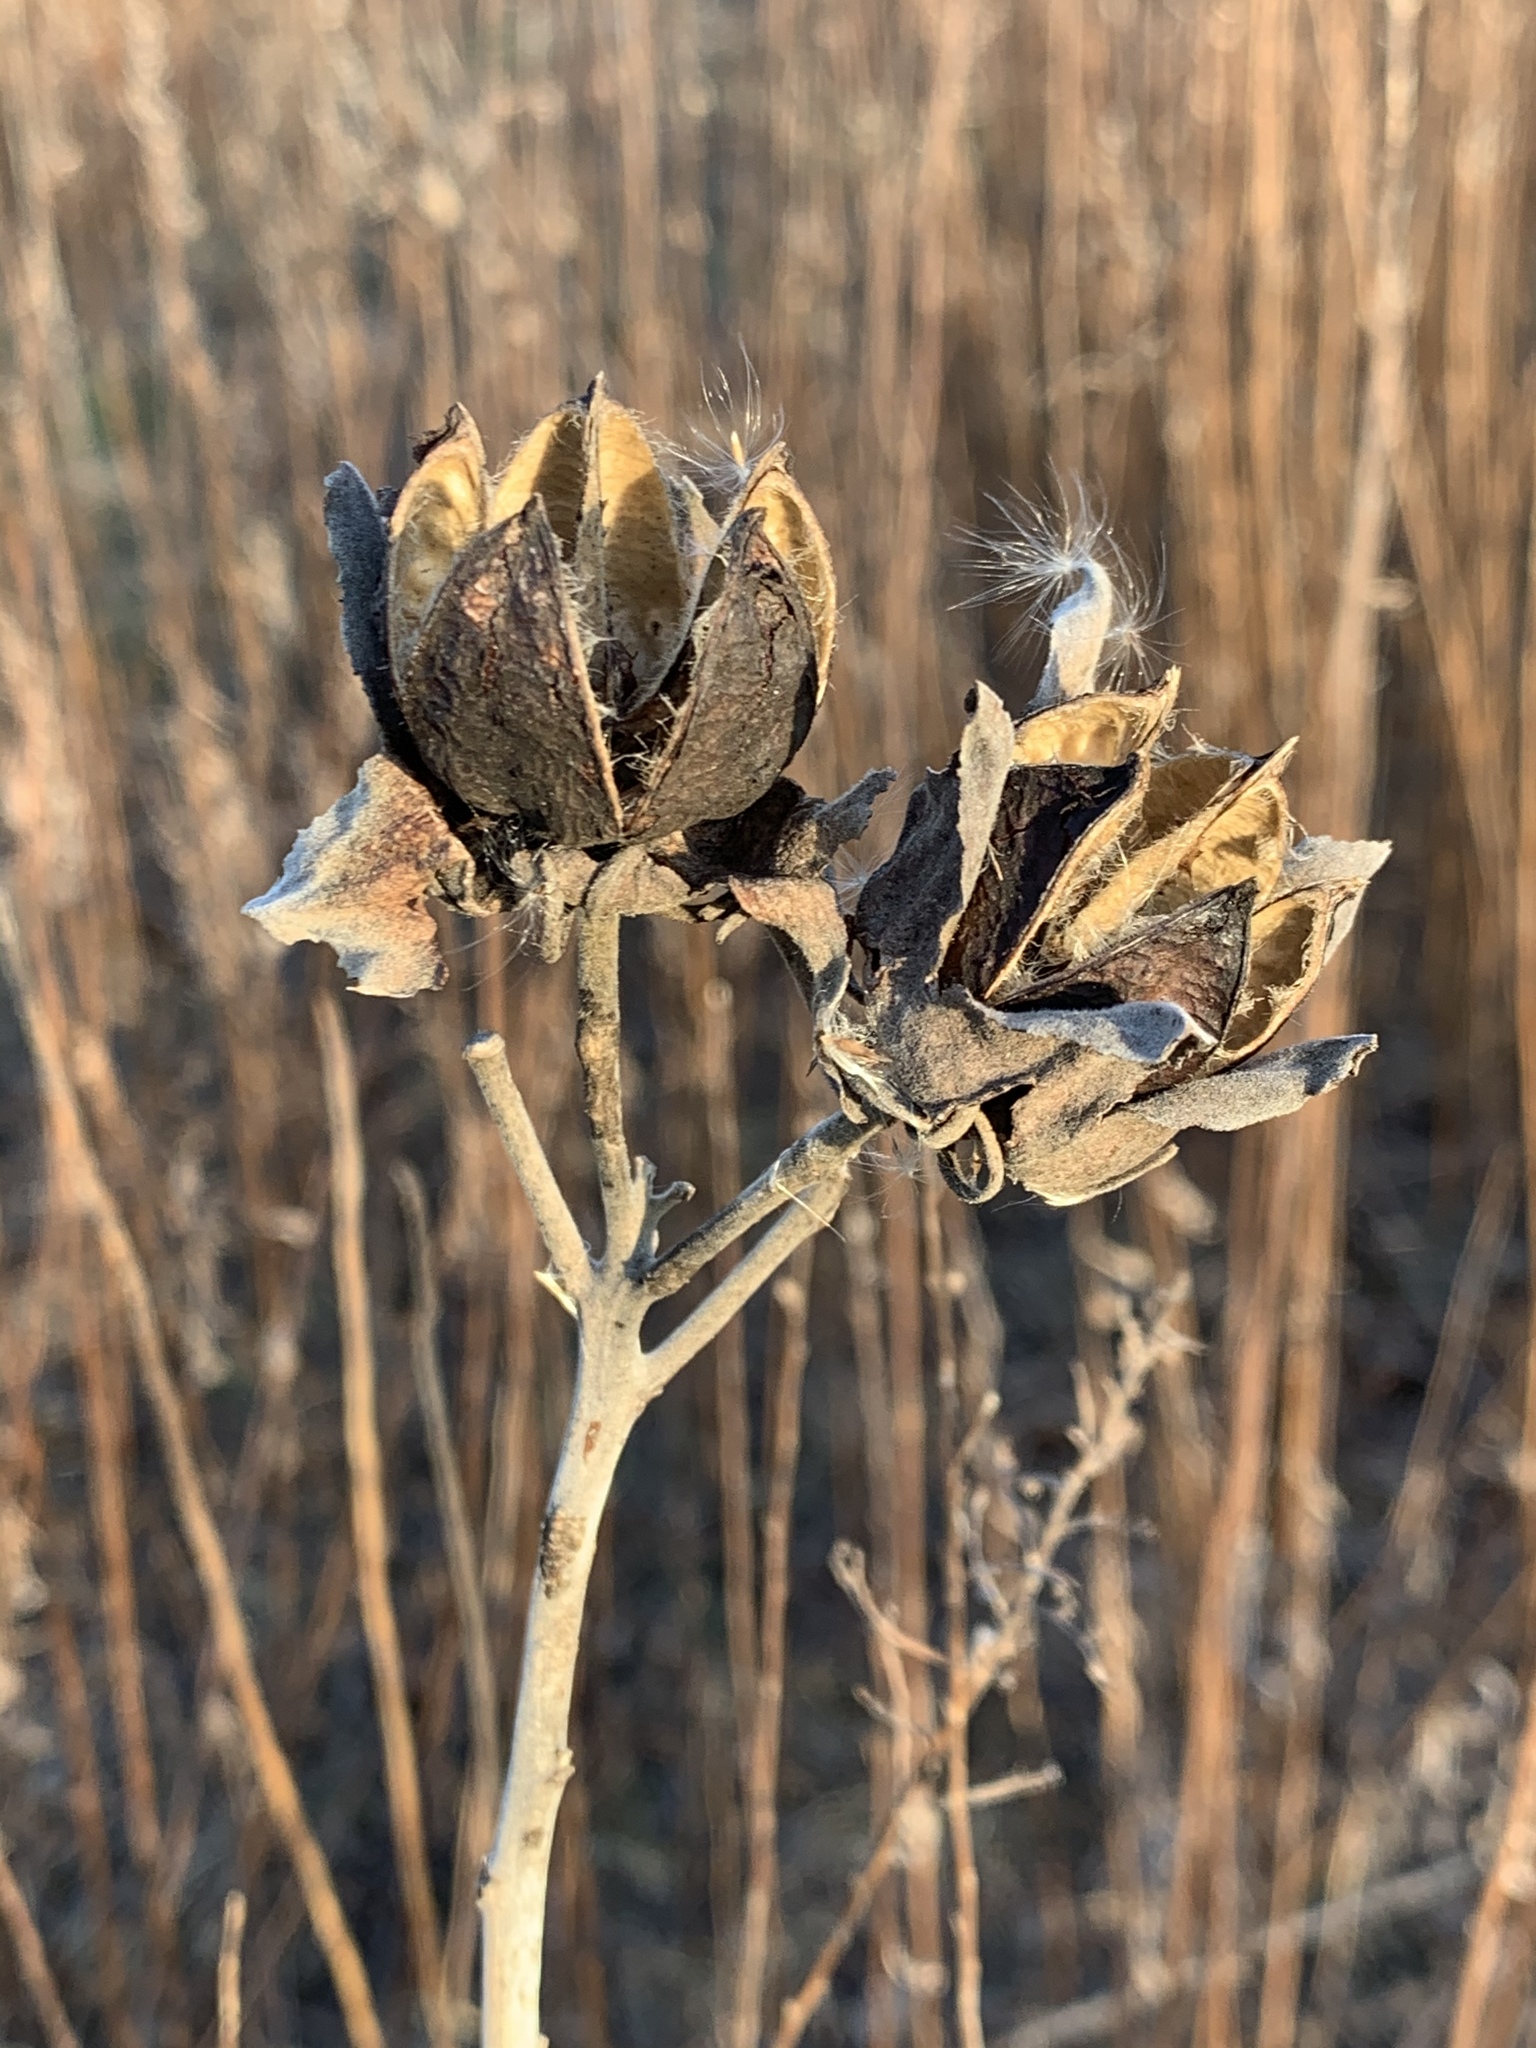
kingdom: Plantae
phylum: Tracheophyta
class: Magnoliopsida
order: Malvales
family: Malvaceae
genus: Hibiscus
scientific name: Hibiscus moscheutos
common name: Common rose-mallow
